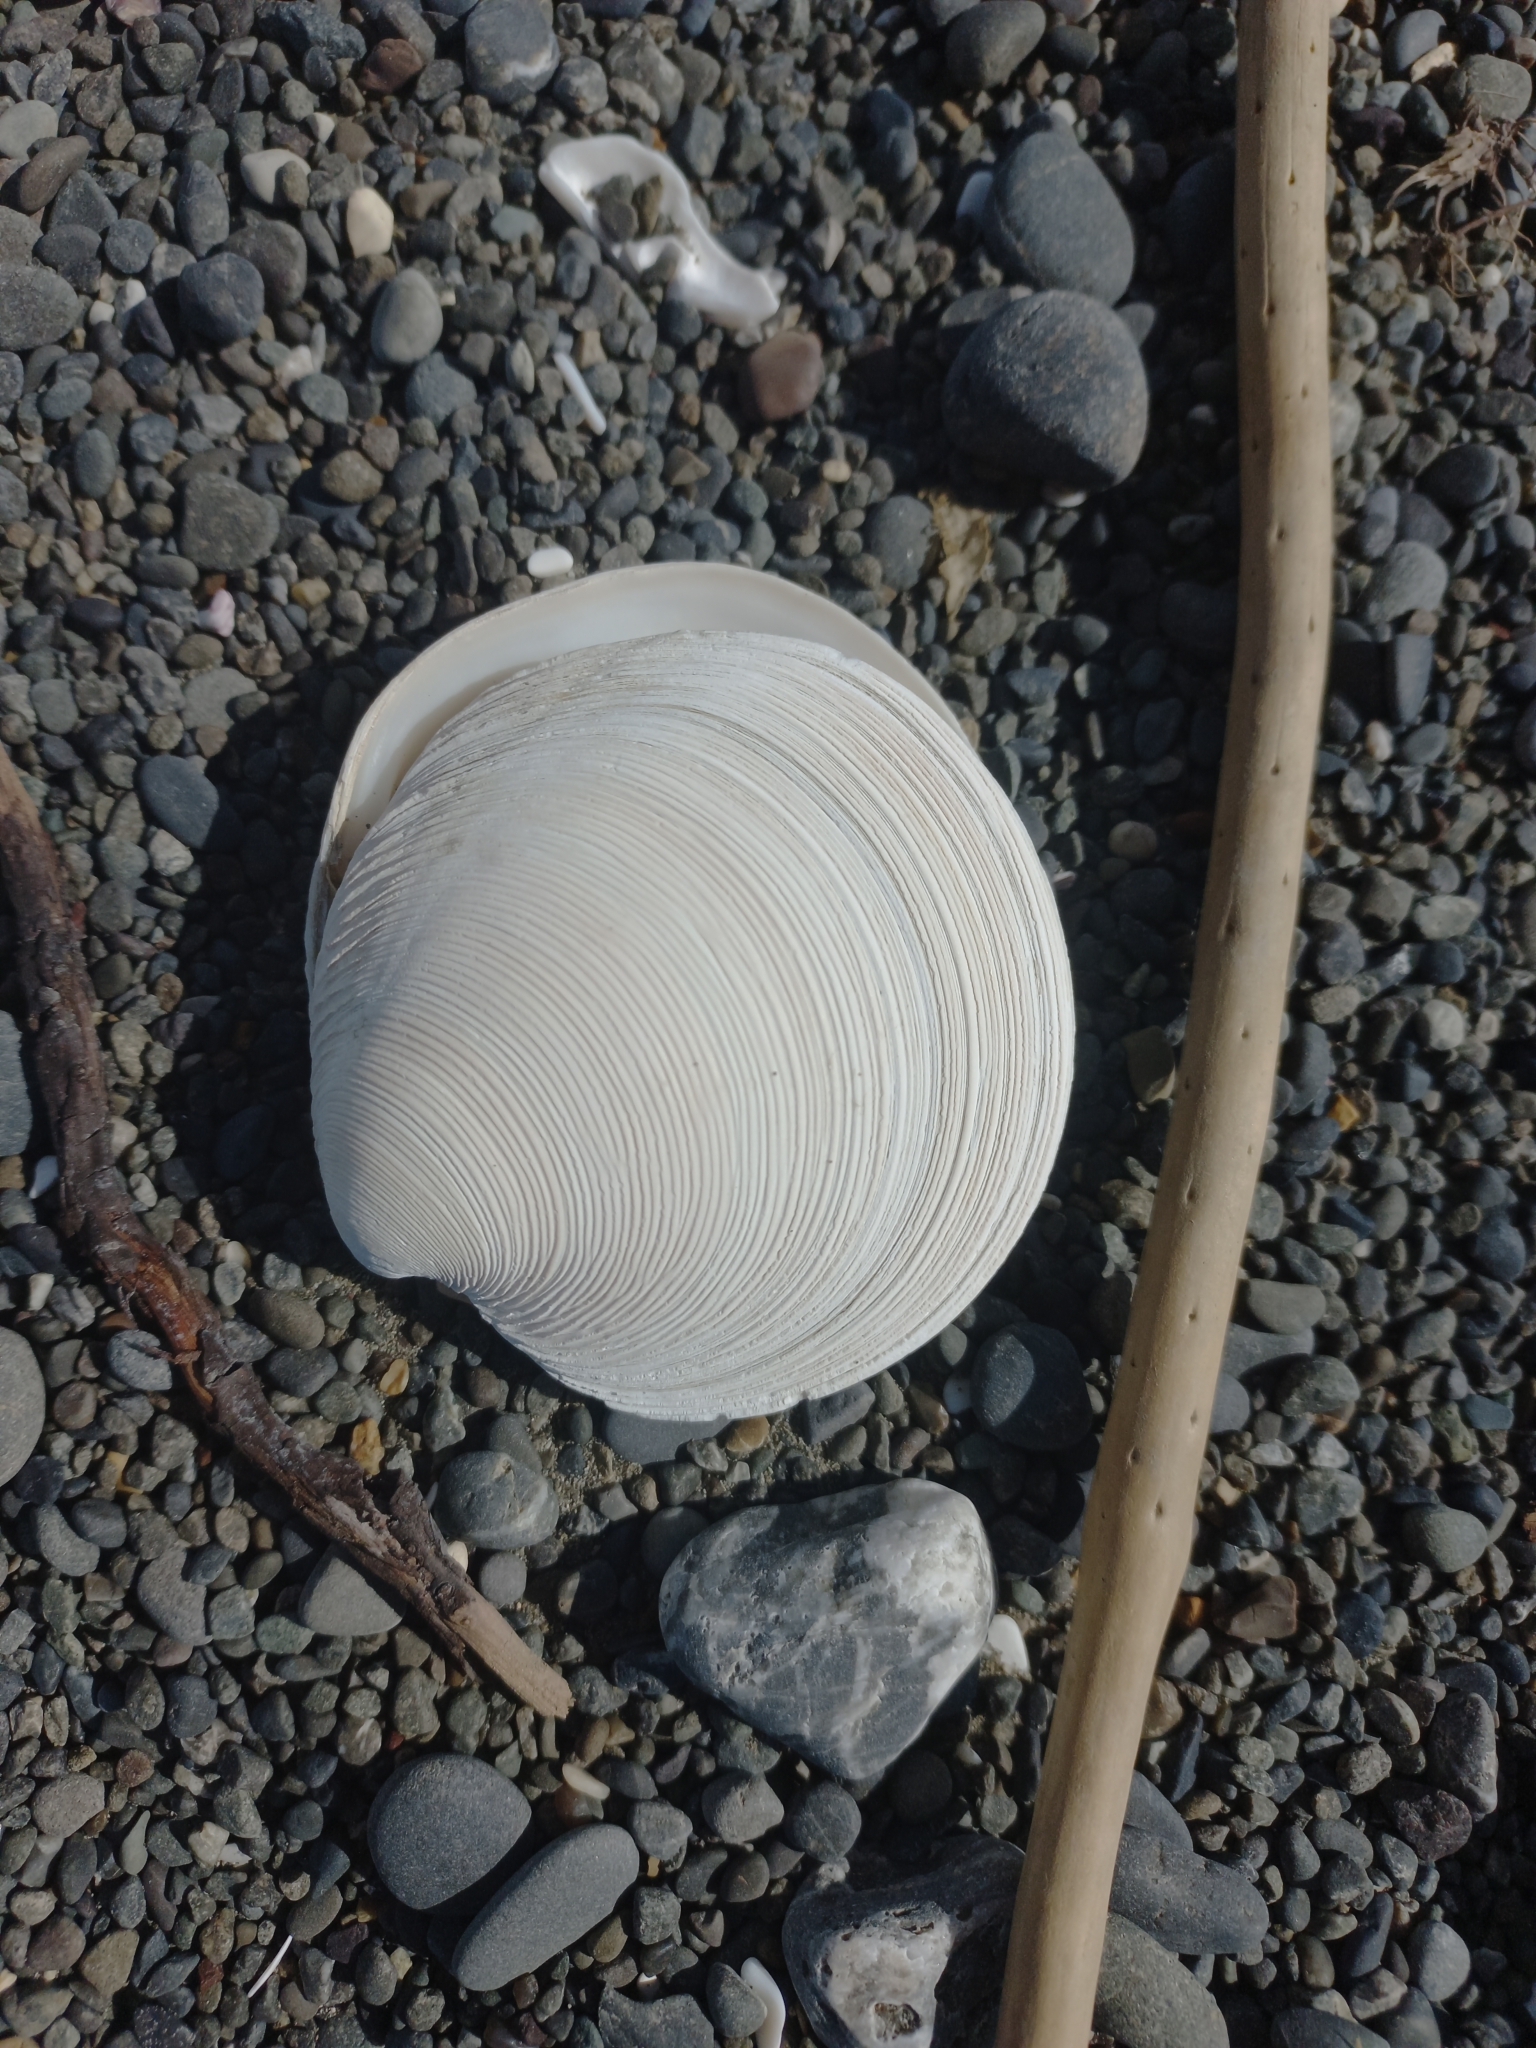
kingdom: Animalia
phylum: Mollusca
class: Bivalvia
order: Venerida
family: Veneridae
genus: Dosinia
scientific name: Dosinia anus
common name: Old-woman dosinia
